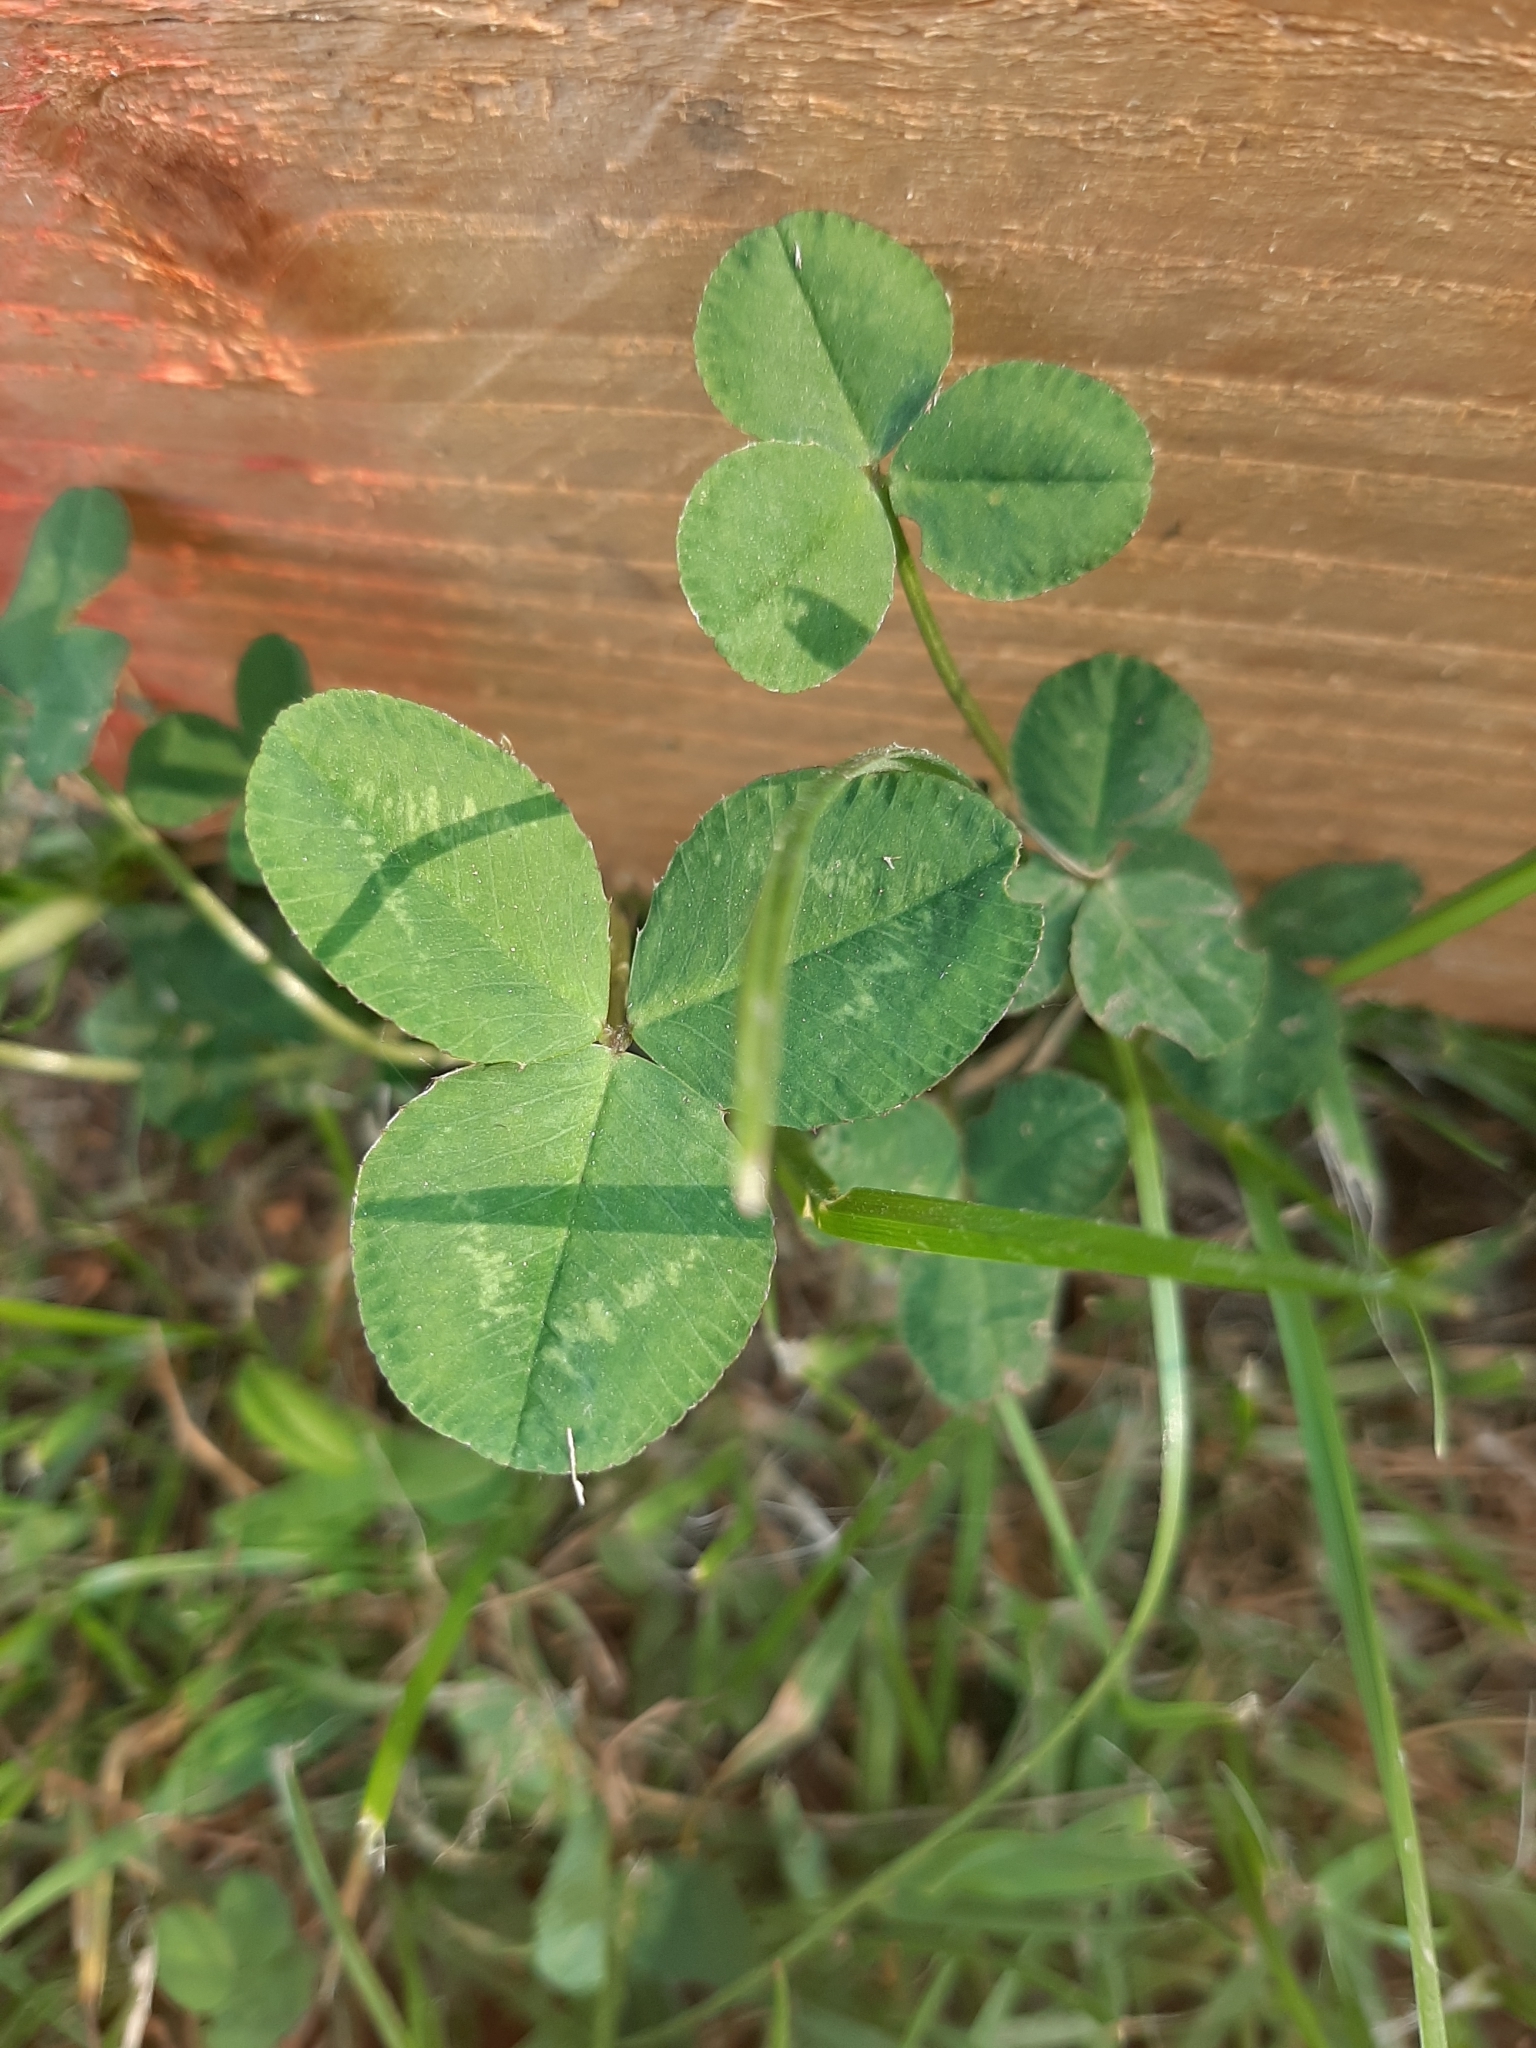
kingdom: Plantae
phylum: Tracheophyta
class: Magnoliopsida
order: Fabales
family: Fabaceae
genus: Trifolium
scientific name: Trifolium repens
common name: White clover
